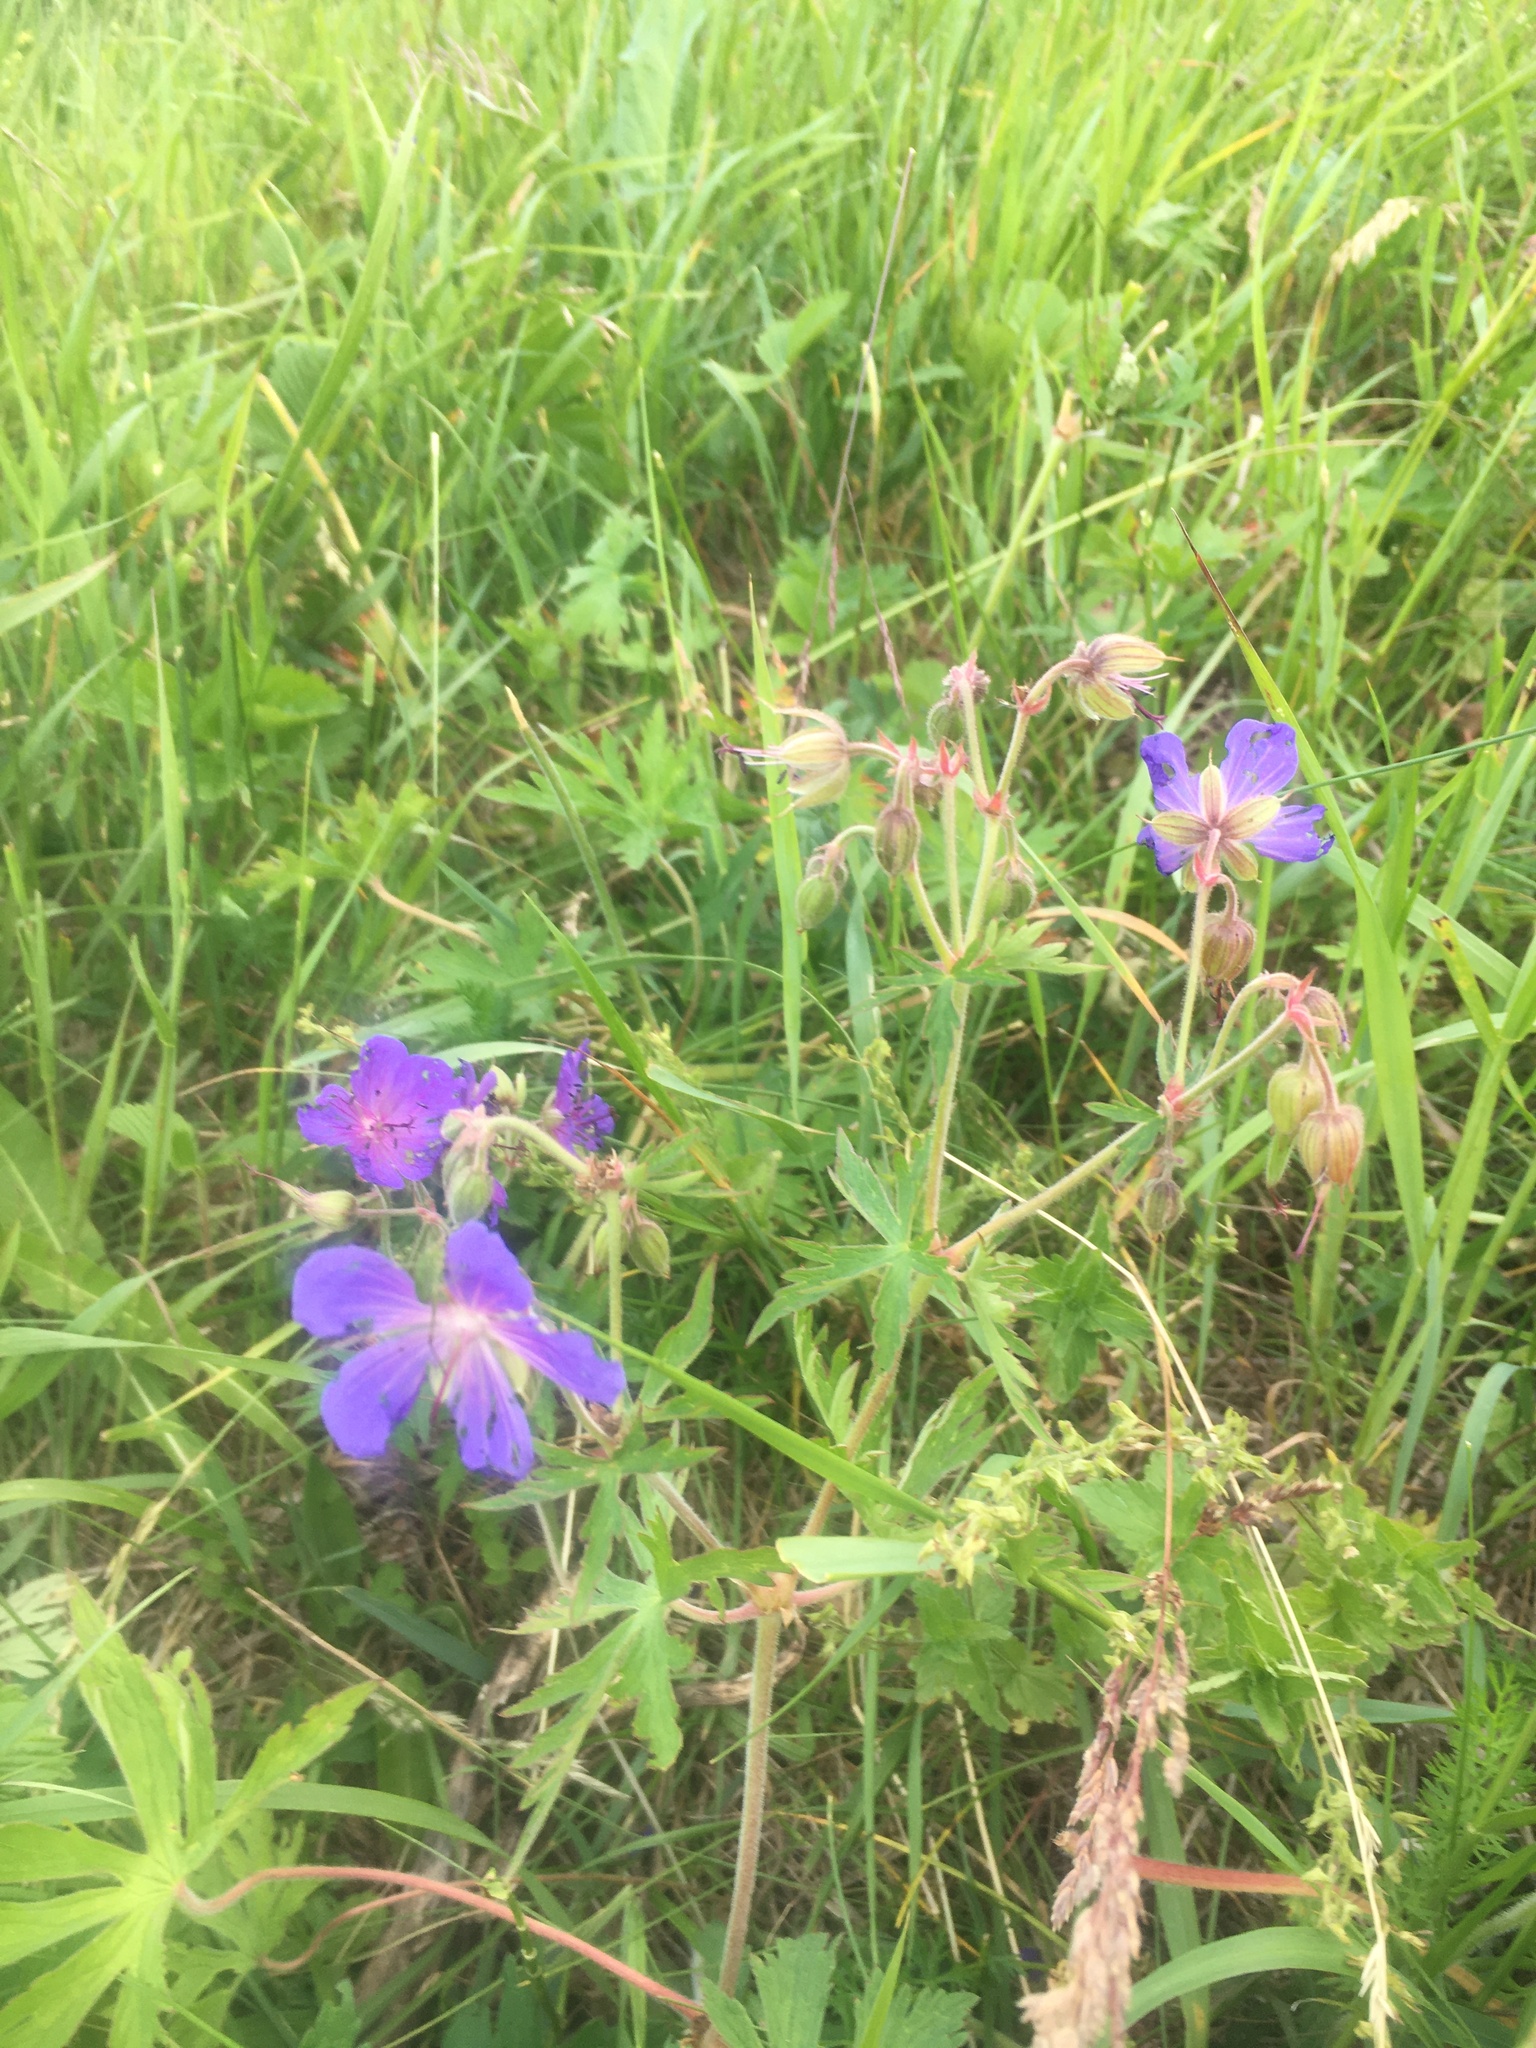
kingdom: Plantae
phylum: Tracheophyta
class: Magnoliopsida
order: Geraniales
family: Geraniaceae
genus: Geranium
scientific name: Geranium pratense
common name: Meadow crane's-bill
